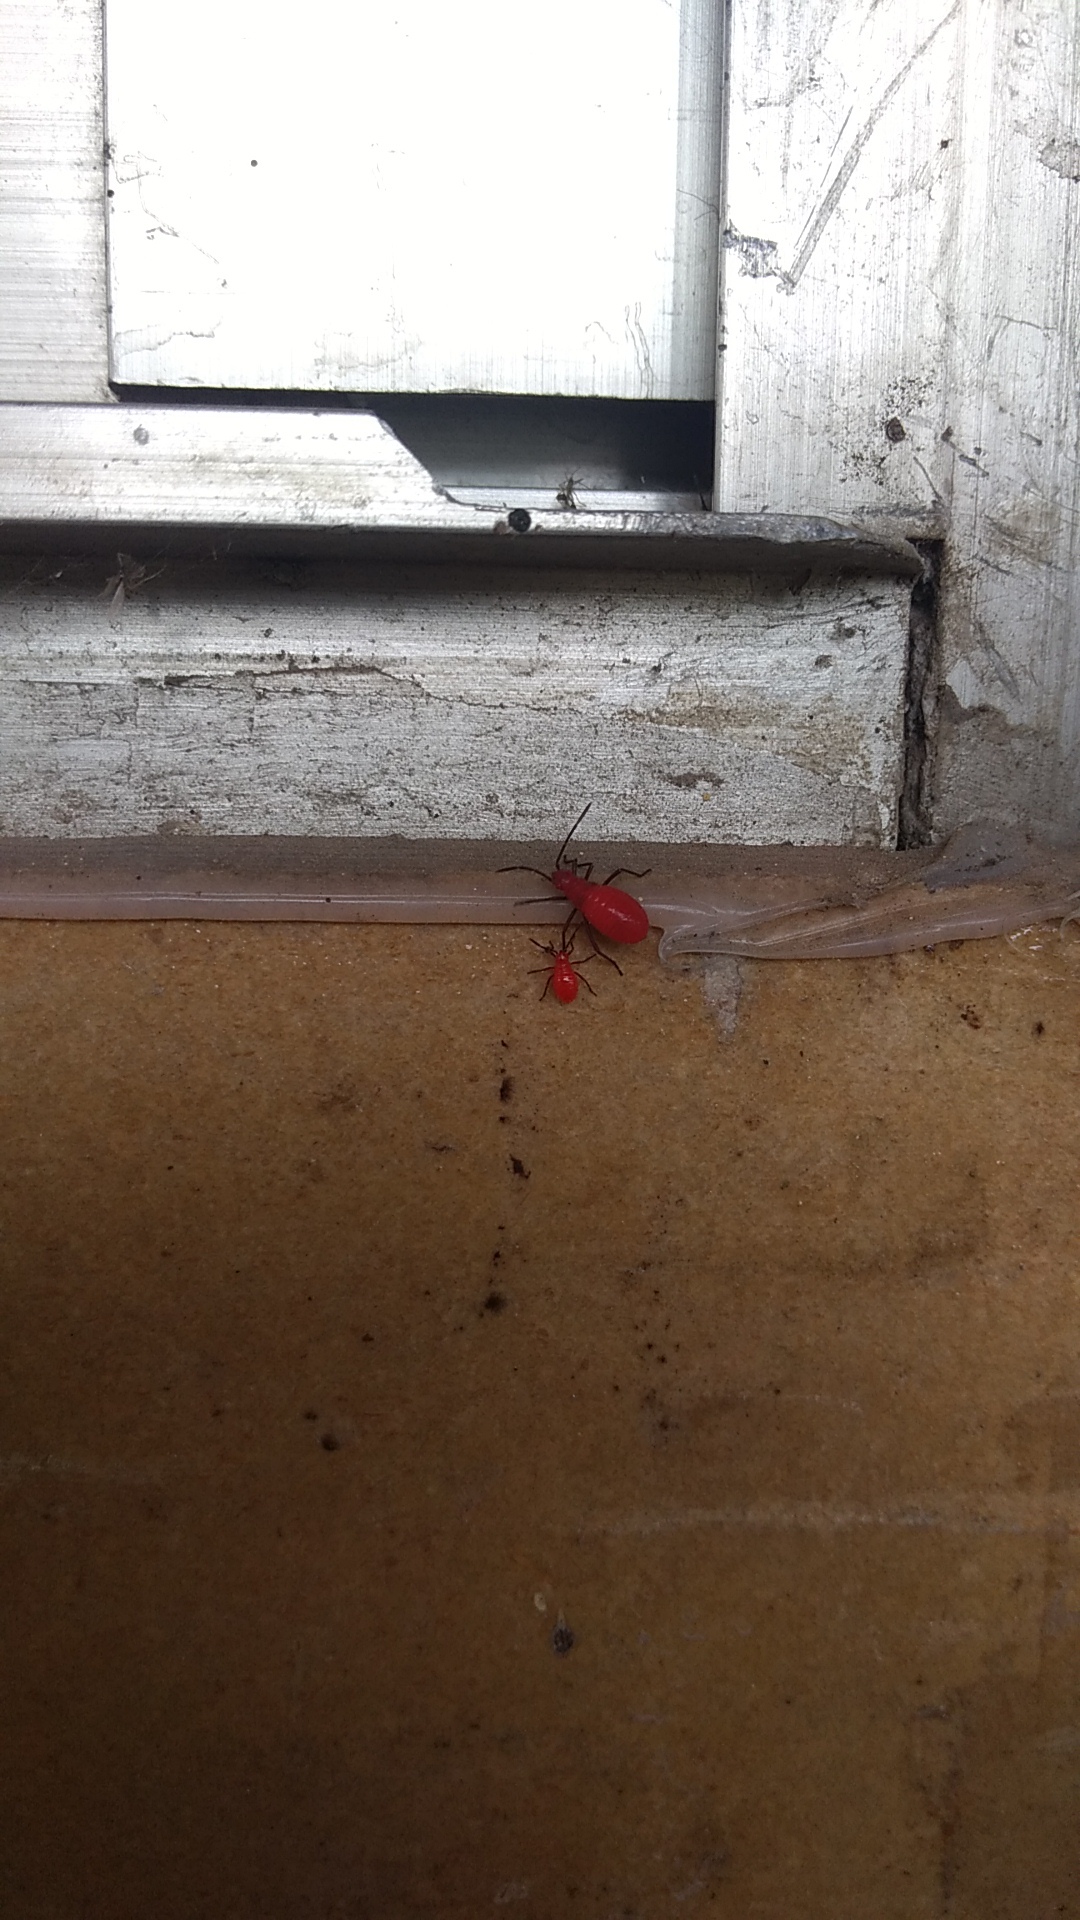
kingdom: Animalia
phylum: Arthropoda
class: Insecta
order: Hemiptera
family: Rhopalidae
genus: Leptocoris
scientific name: Leptocoris vicinus
